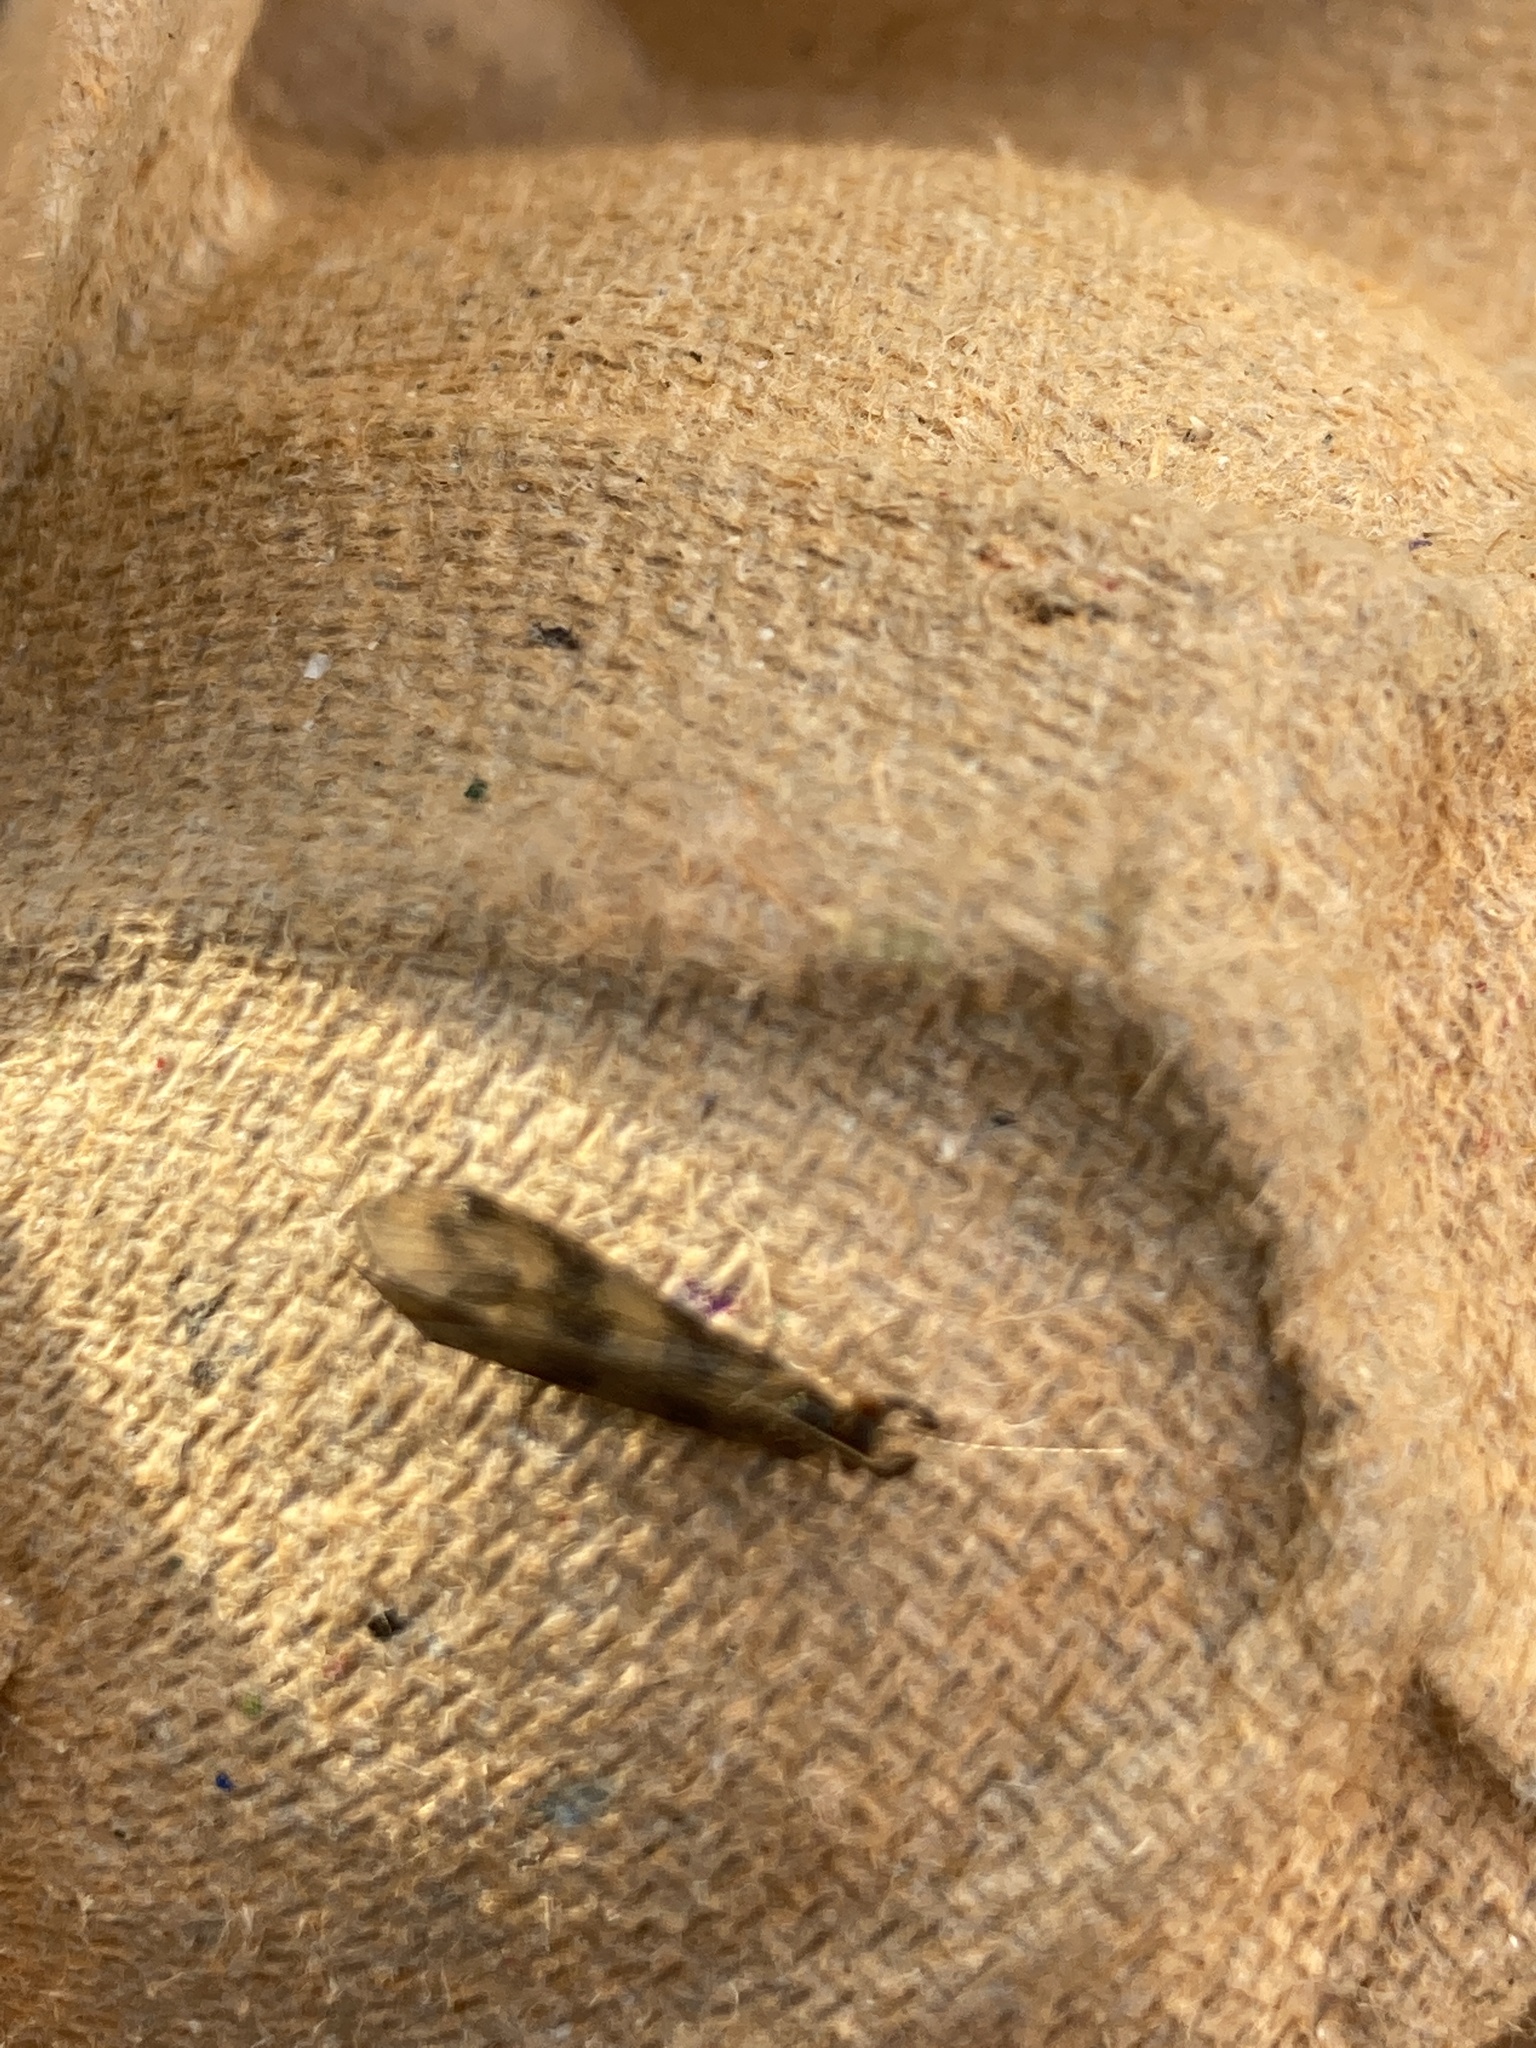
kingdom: Animalia
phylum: Arthropoda
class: Insecta
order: Trichoptera
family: Leptoceridae
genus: Mystacides
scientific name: Mystacides longicornis
